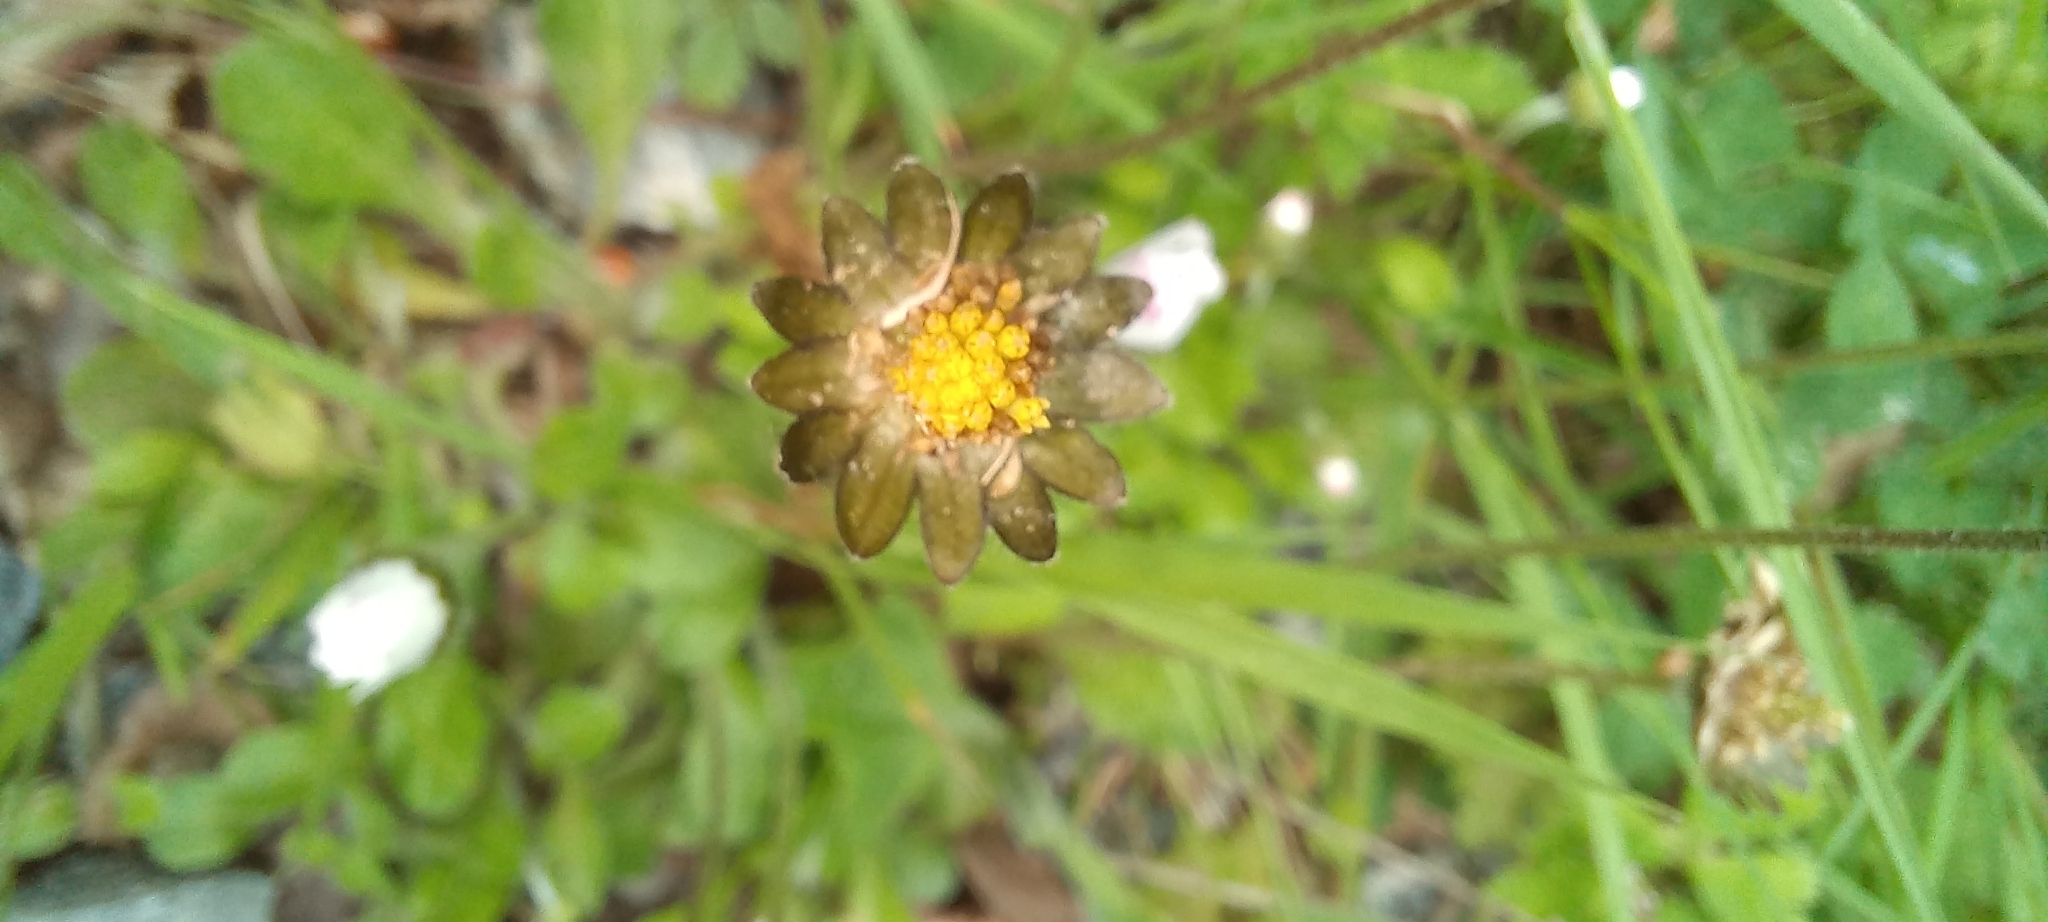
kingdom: Plantae
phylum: Tracheophyta
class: Magnoliopsida
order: Asterales
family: Asteraceae
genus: Bellis
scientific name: Bellis perennis
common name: Lawndaisy
